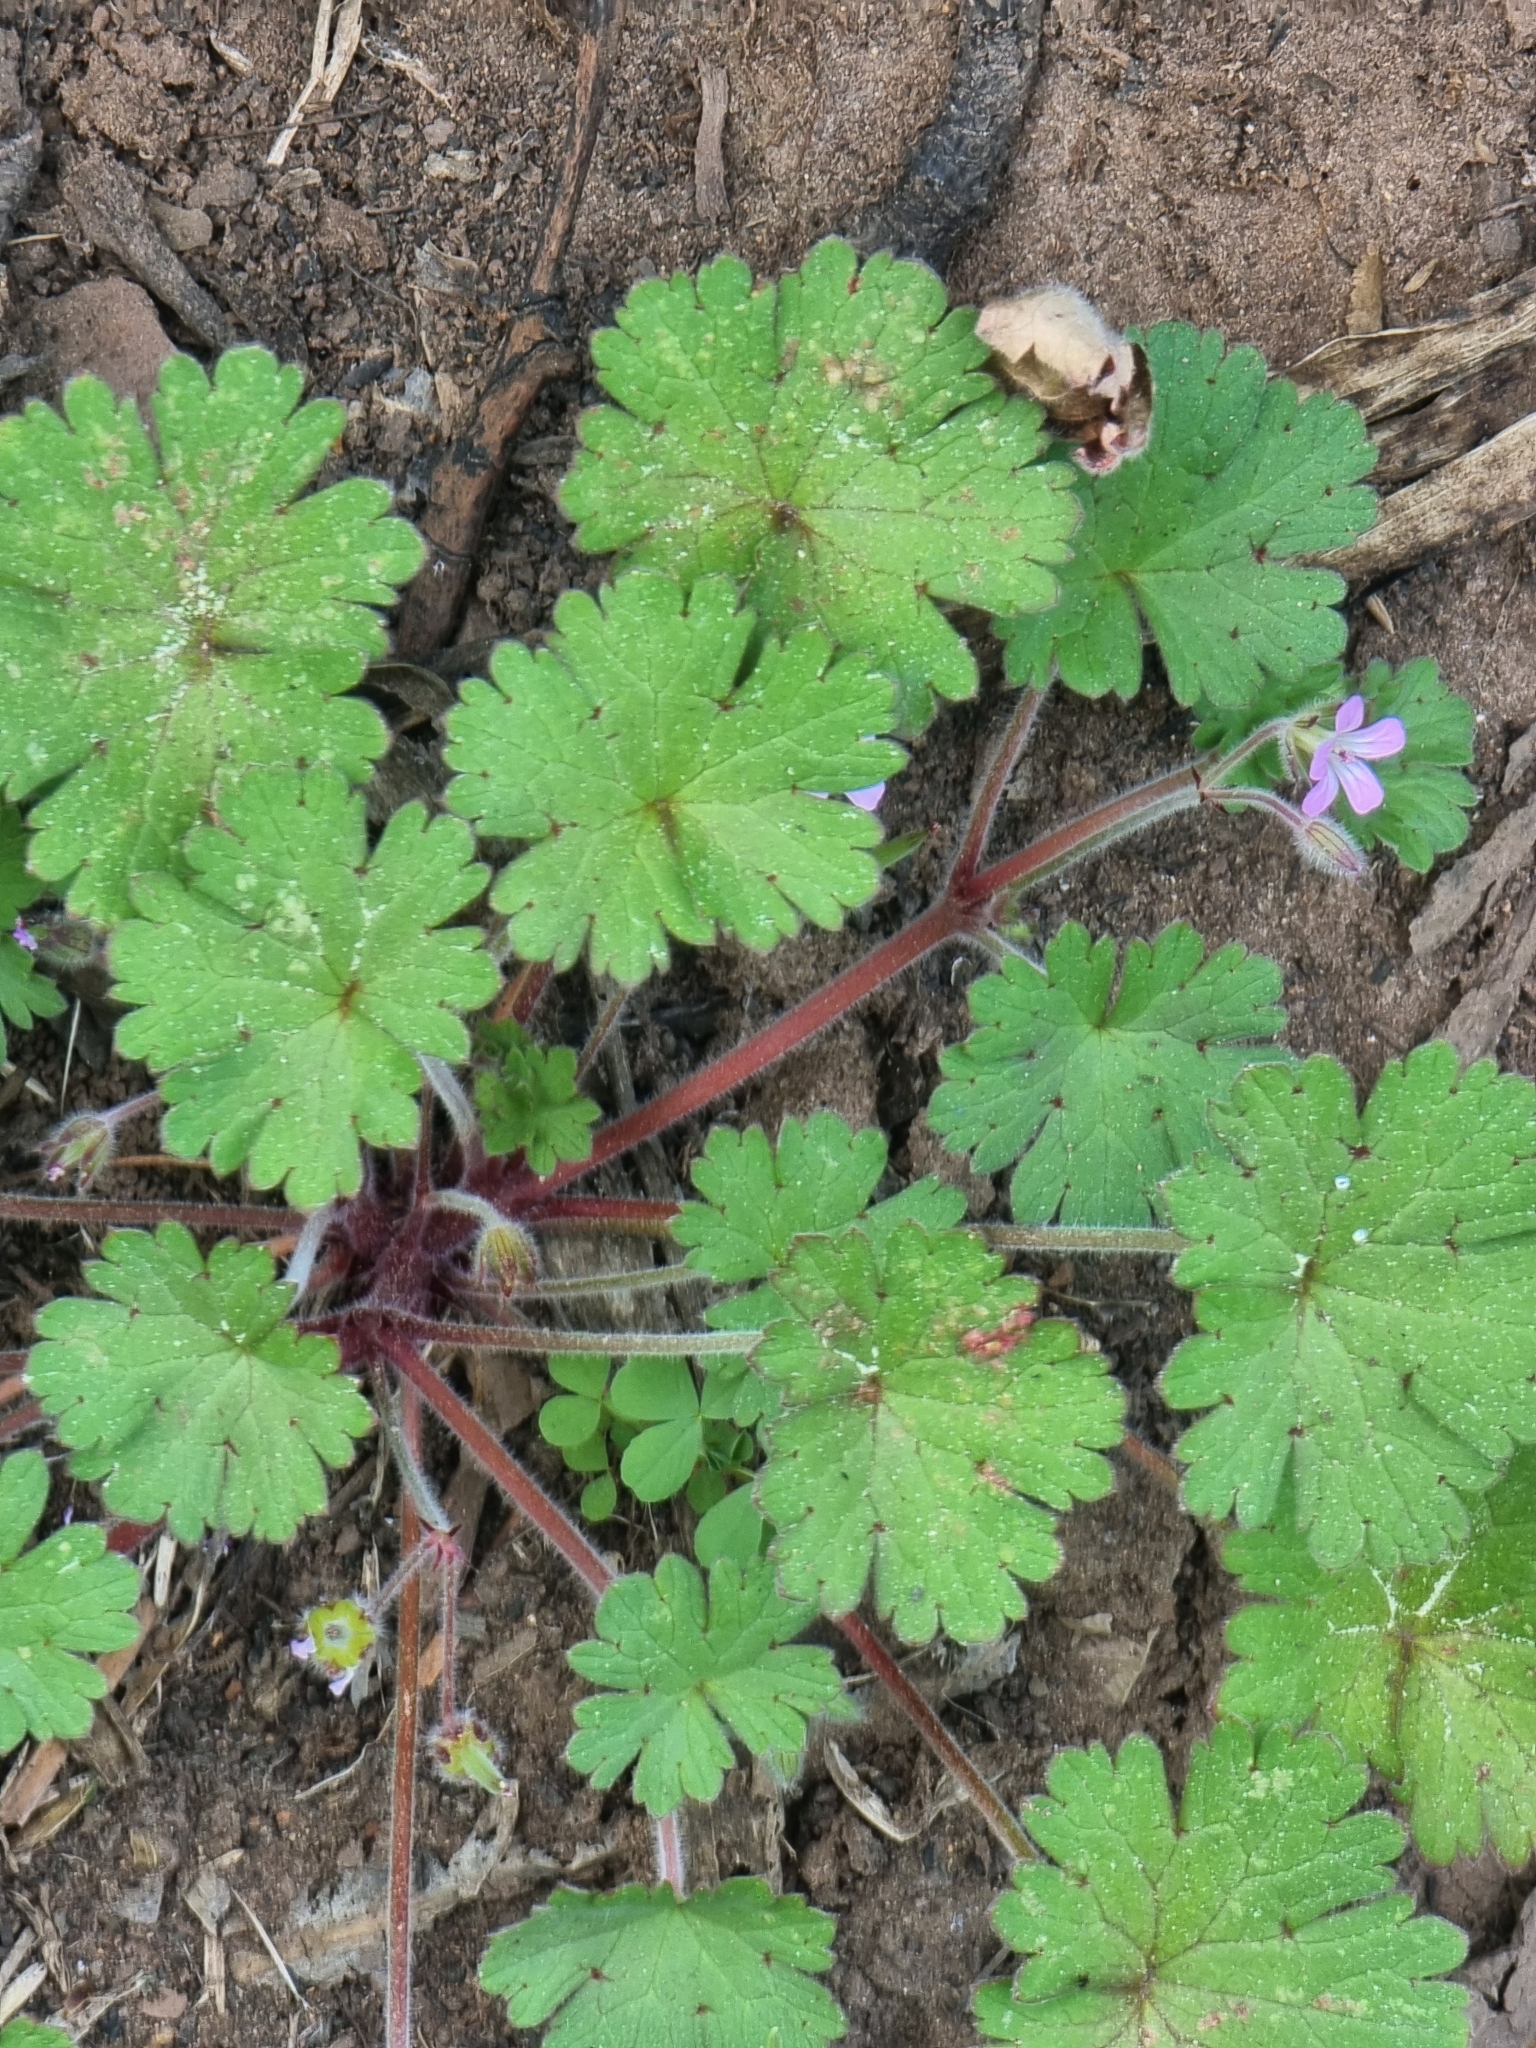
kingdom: Plantae
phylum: Tracheophyta
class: Magnoliopsida
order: Geraniales
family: Geraniaceae
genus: Geranium
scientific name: Geranium rotundifolium
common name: Round-leaved crane's-bill
